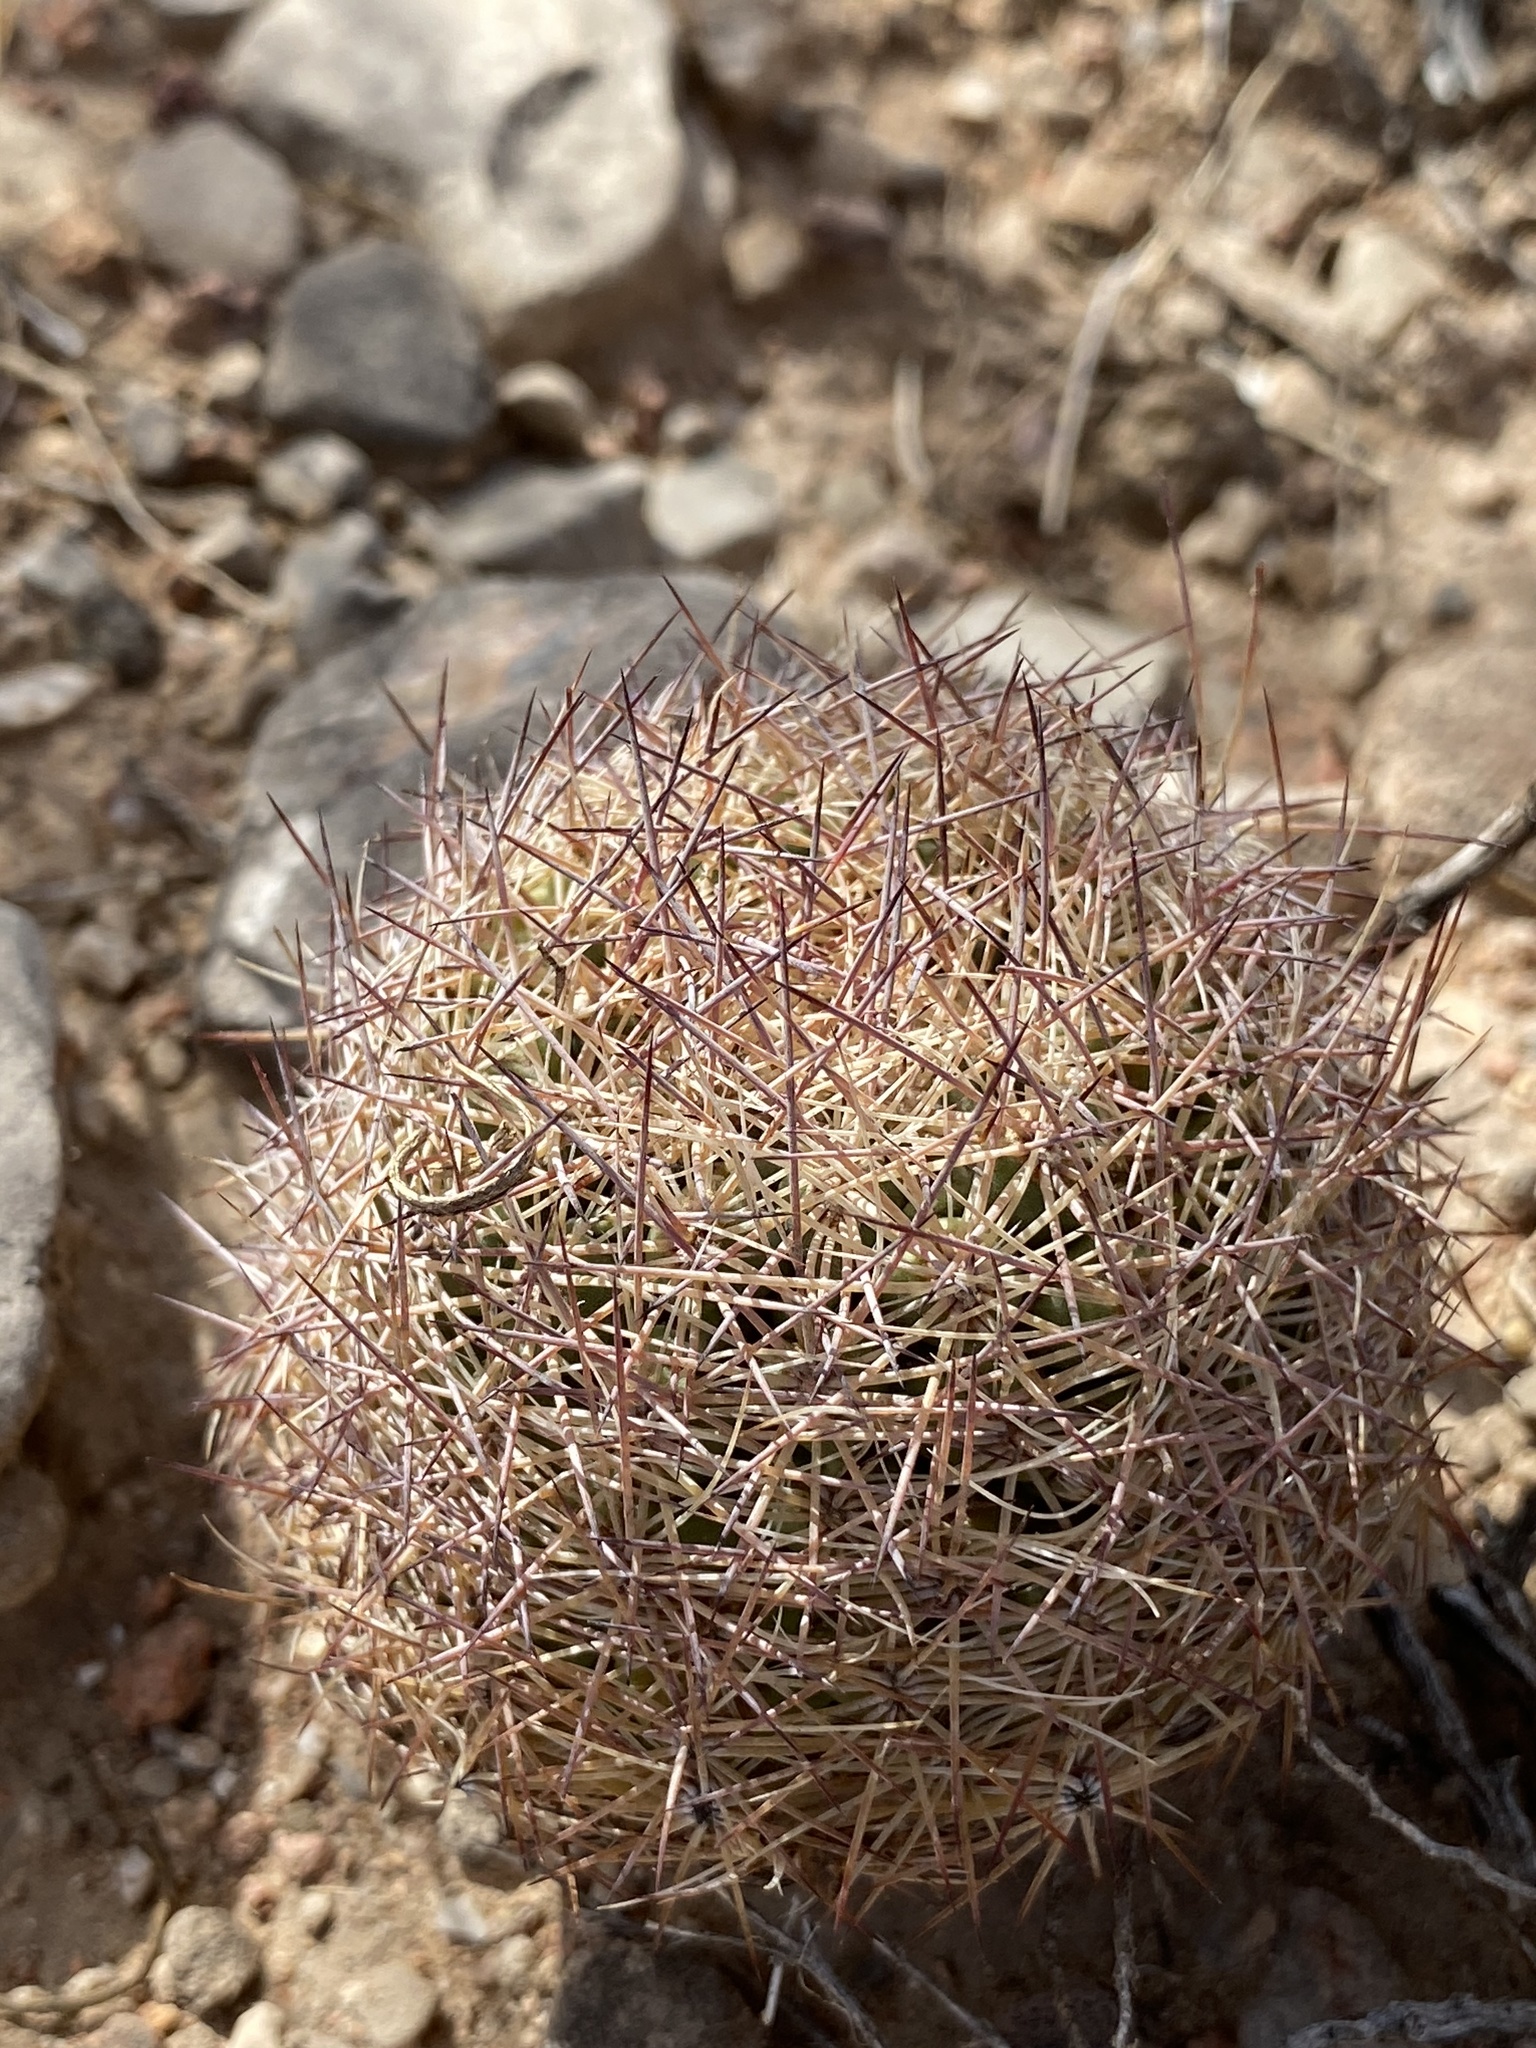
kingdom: Plantae
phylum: Tracheophyta
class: Magnoliopsida
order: Caryophyllales
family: Cactaceae
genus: Sclerocactus
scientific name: Sclerocactus intertextus
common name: White fish-hook cactus
